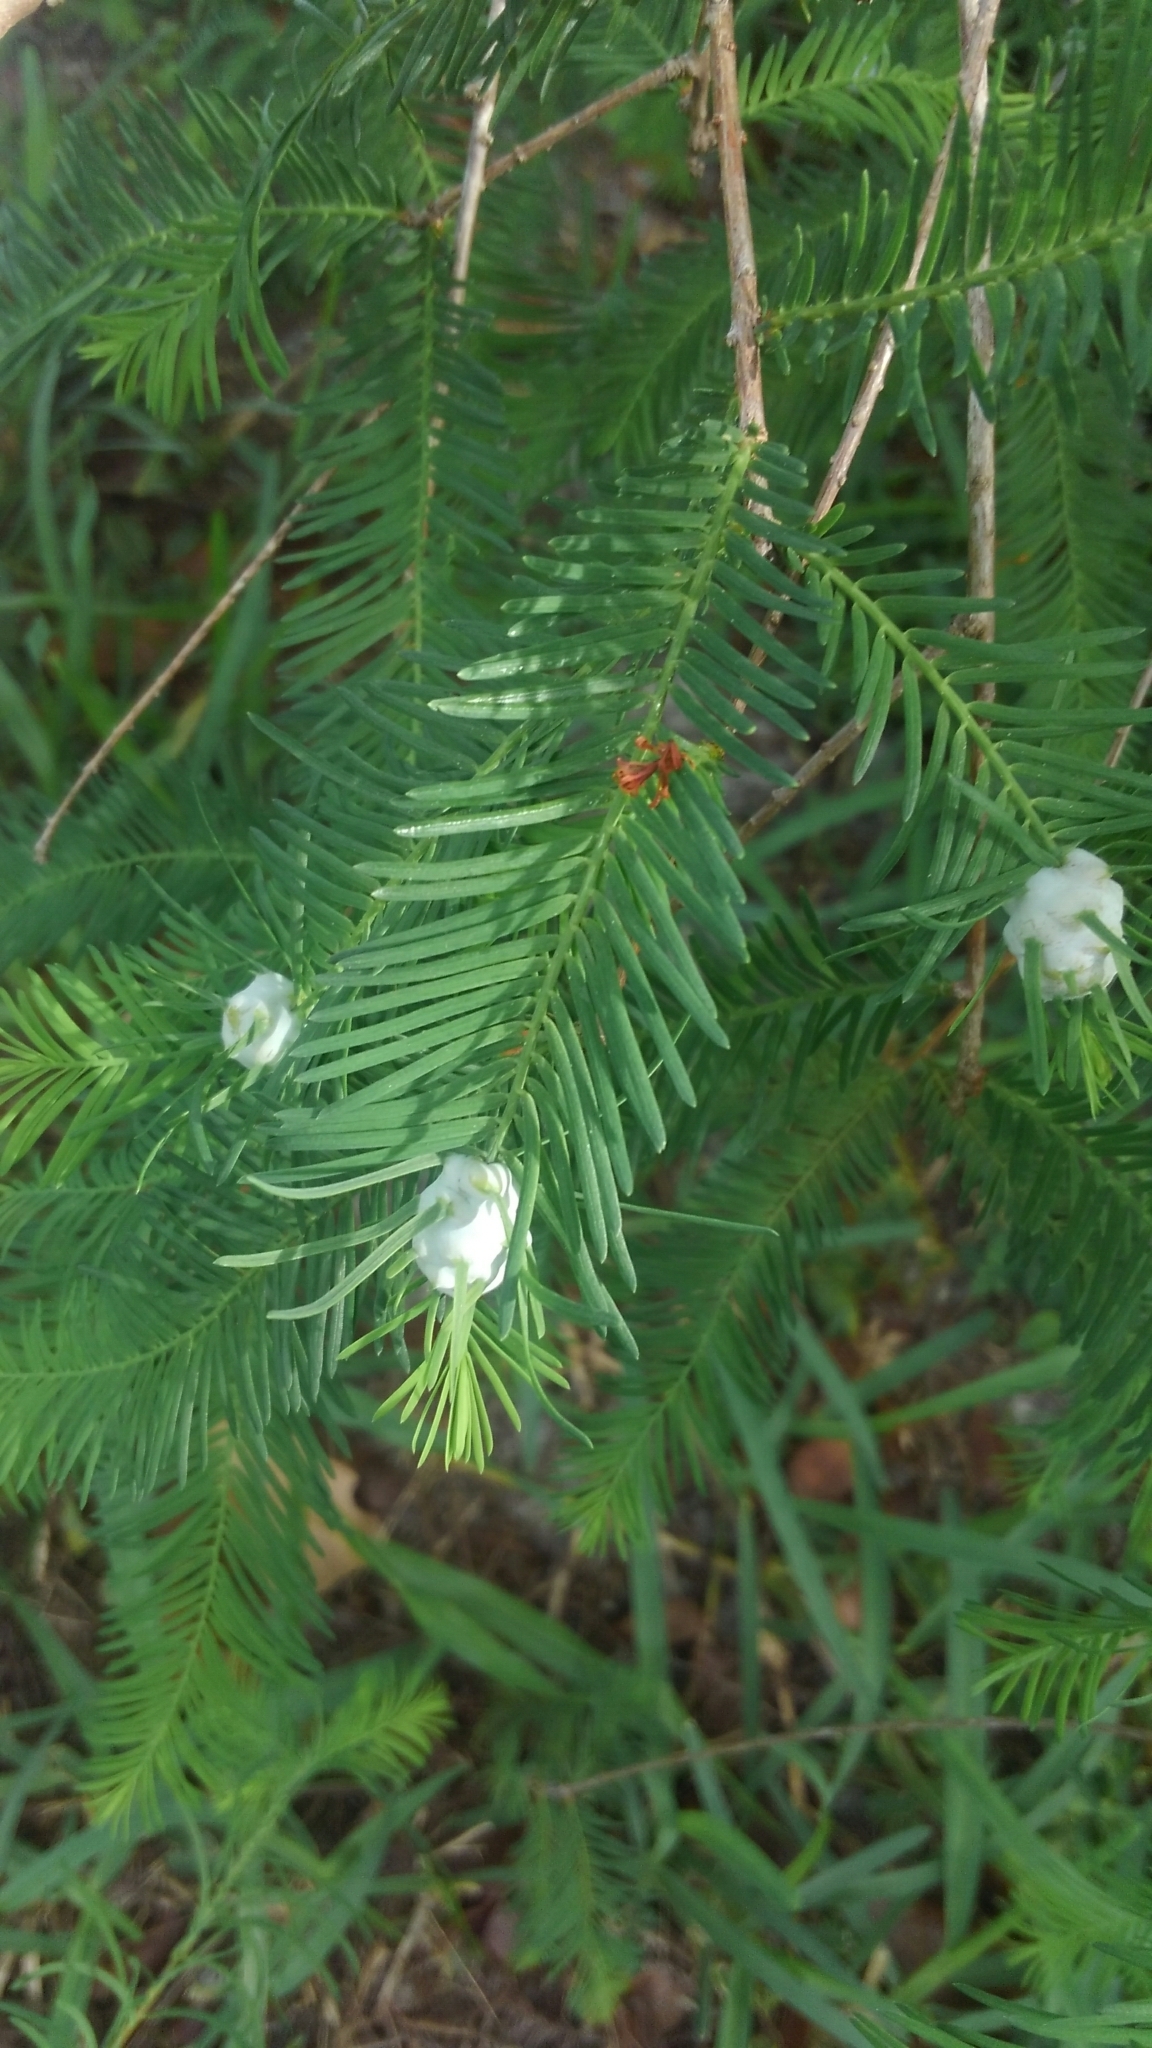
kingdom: Animalia
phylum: Arthropoda
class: Insecta
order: Diptera
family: Cecidomyiidae
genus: Taxodiomyia
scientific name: Taxodiomyia cupressiananassa
